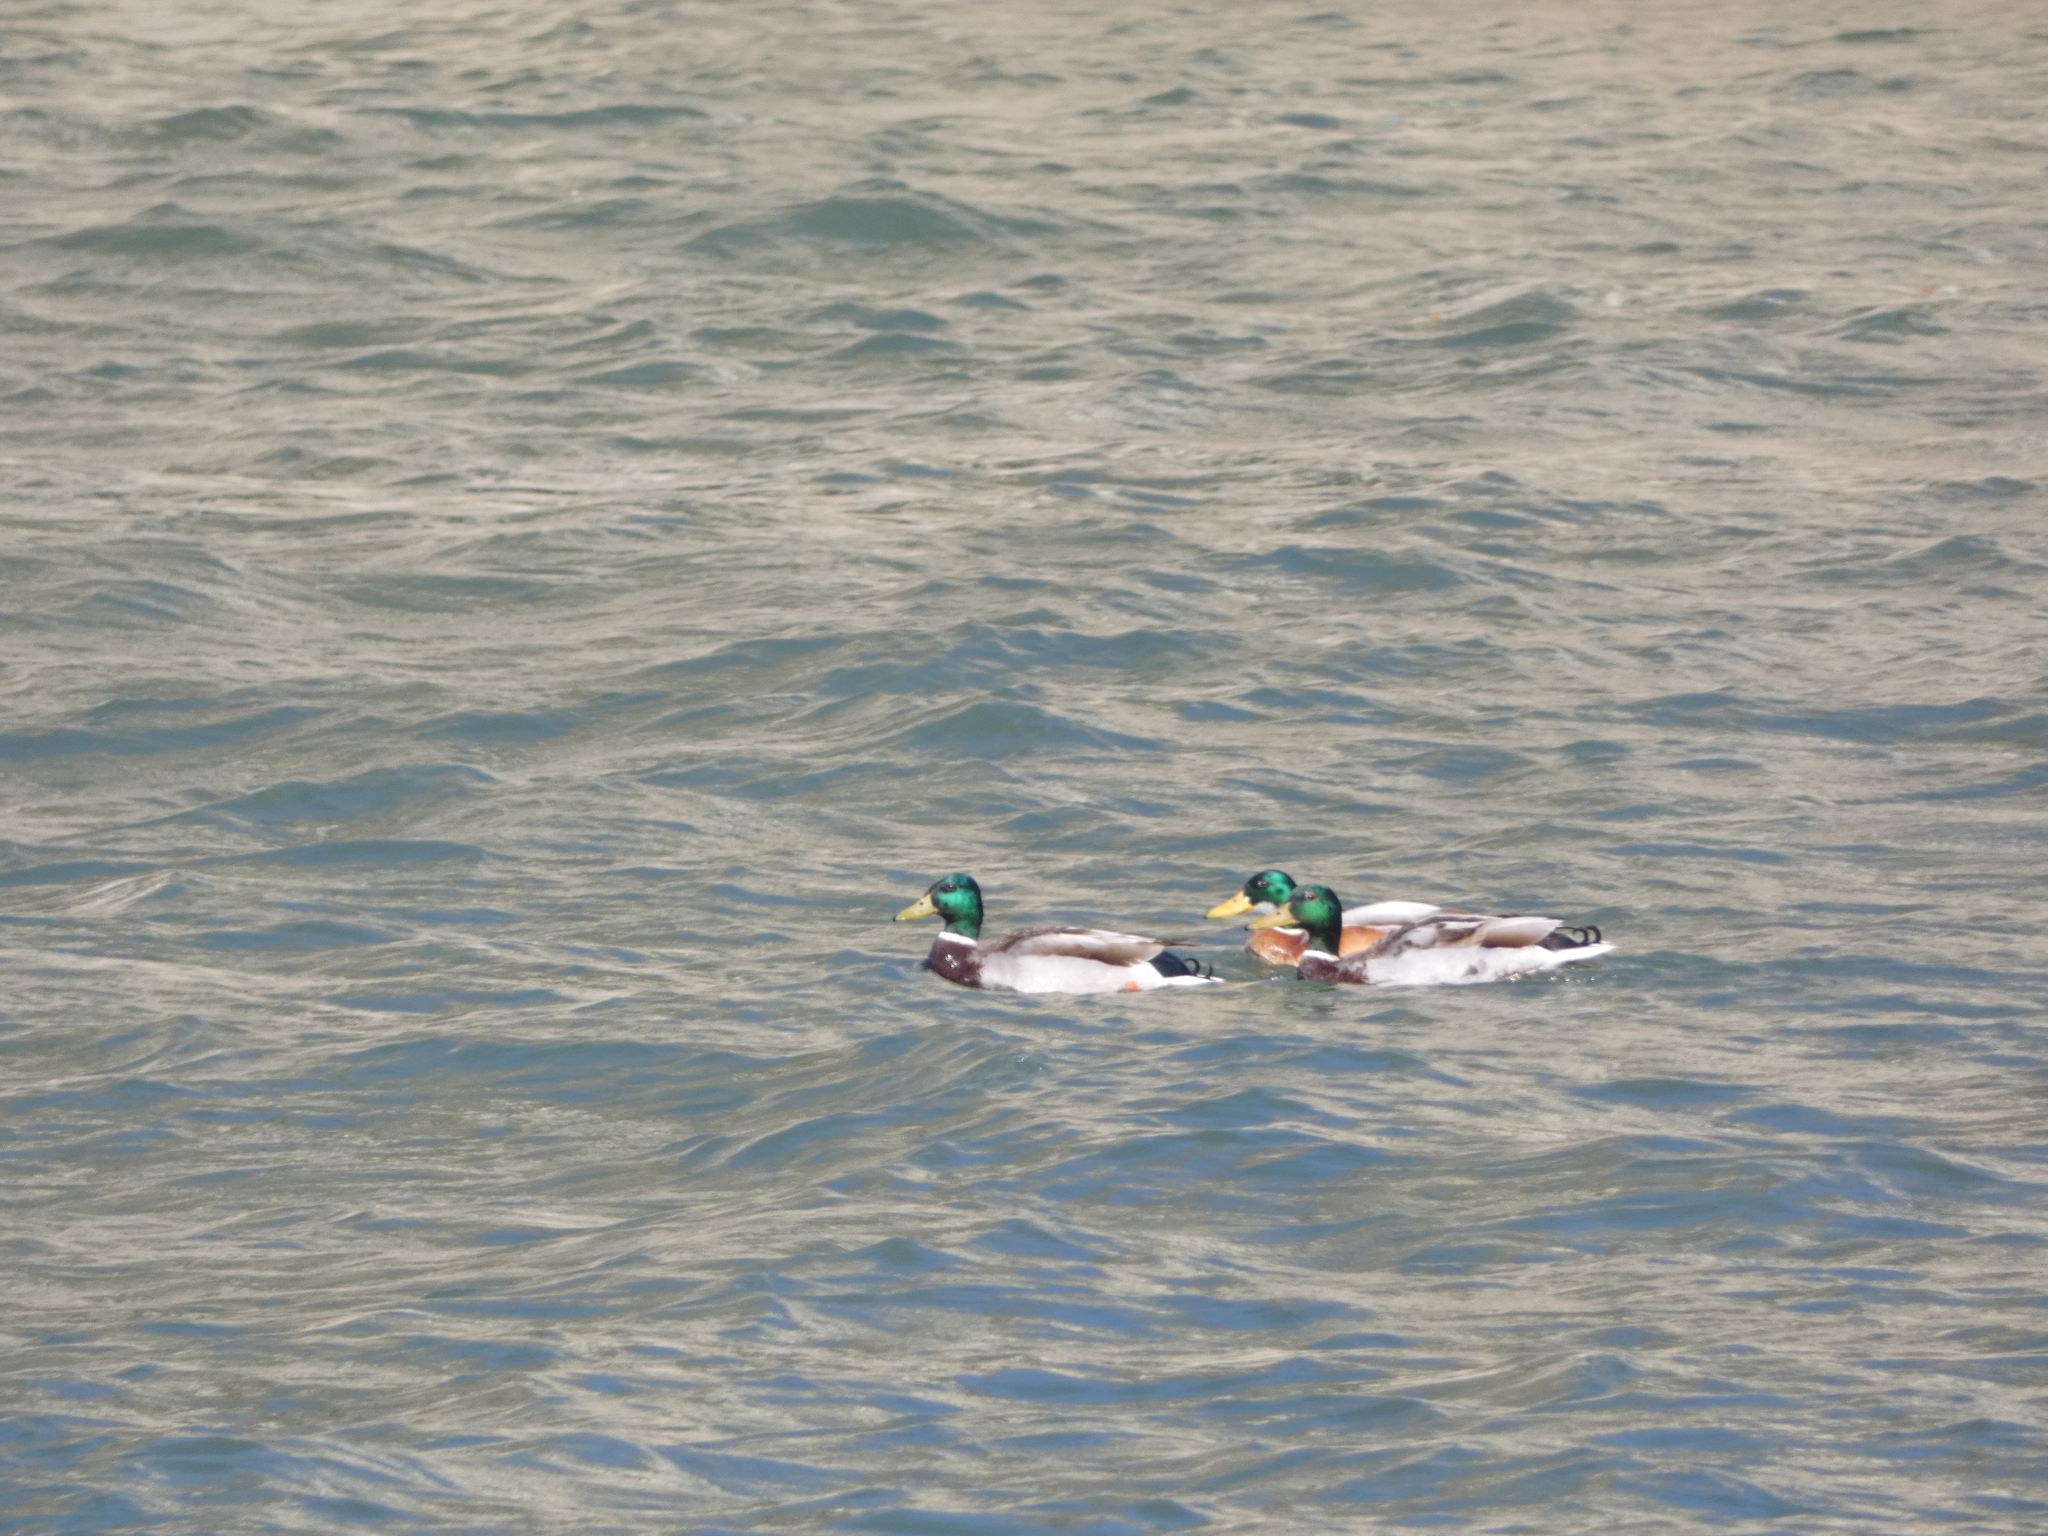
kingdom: Animalia
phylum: Chordata
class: Aves
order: Anseriformes
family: Anatidae
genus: Anas
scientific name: Anas platyrhynchos
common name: Mallard
